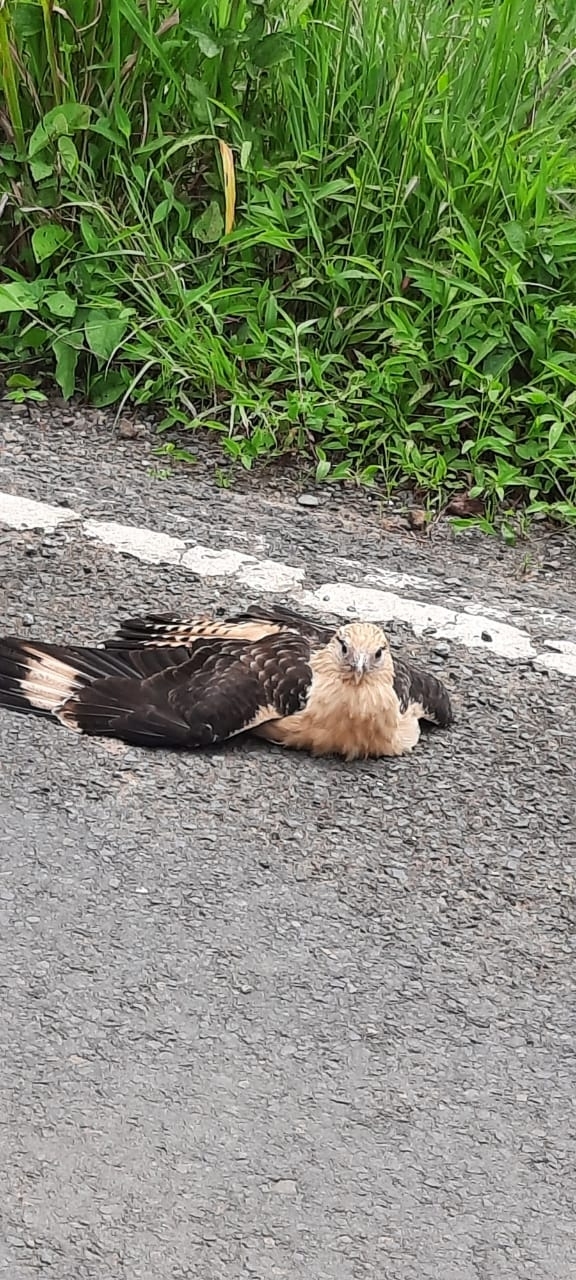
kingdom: Animalia
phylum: Chordata
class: Aves
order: Falconiformes
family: Falconidae
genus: Daptrius
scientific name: Daptrius
